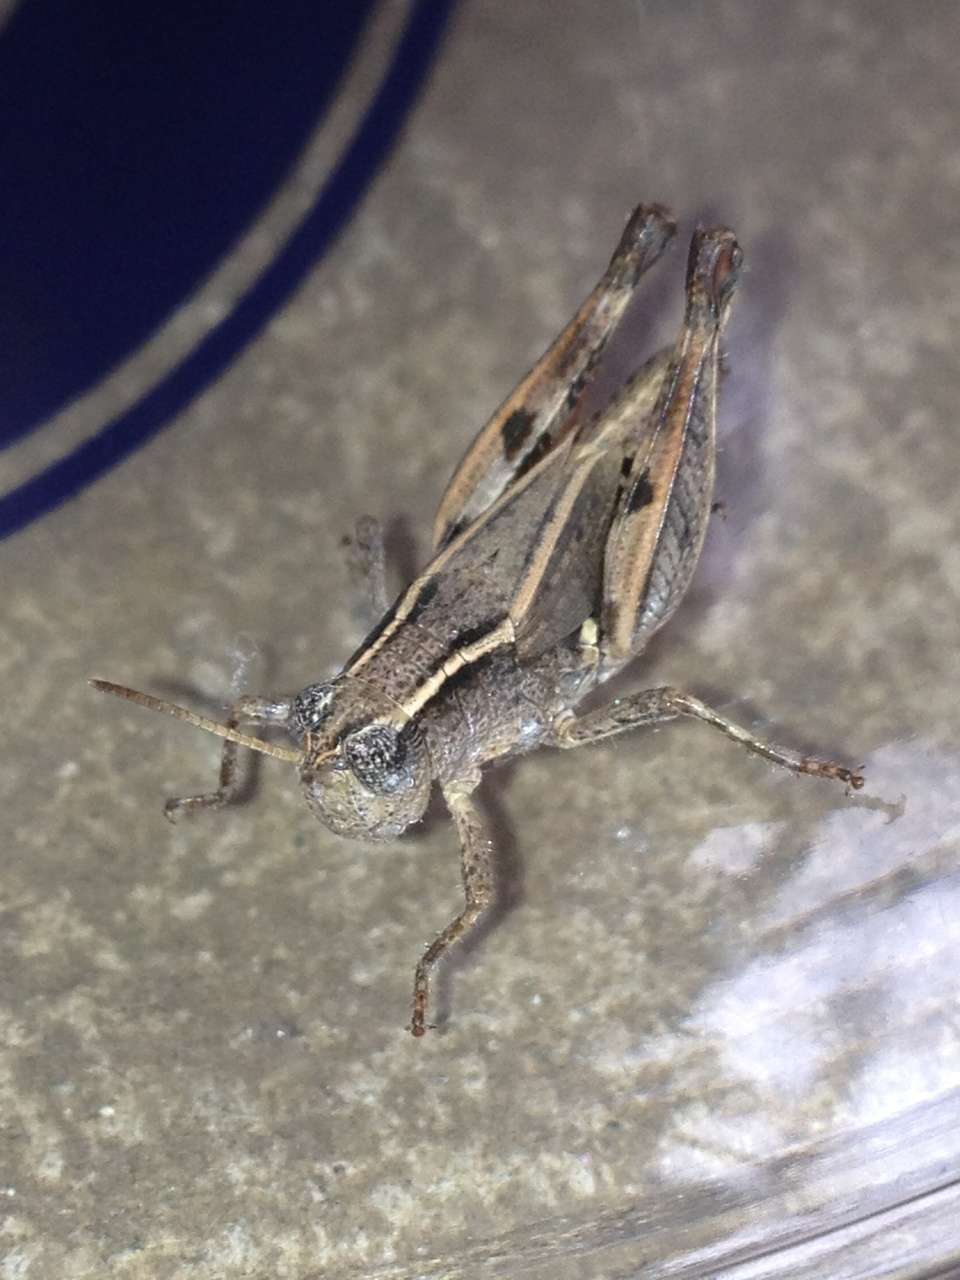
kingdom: Animalia
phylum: Arthropoda
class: Insecta
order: Orthoptera
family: Acrididae
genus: Phaulacridium
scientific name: Phaulacridium vittatum
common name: Wingless grasshopper
